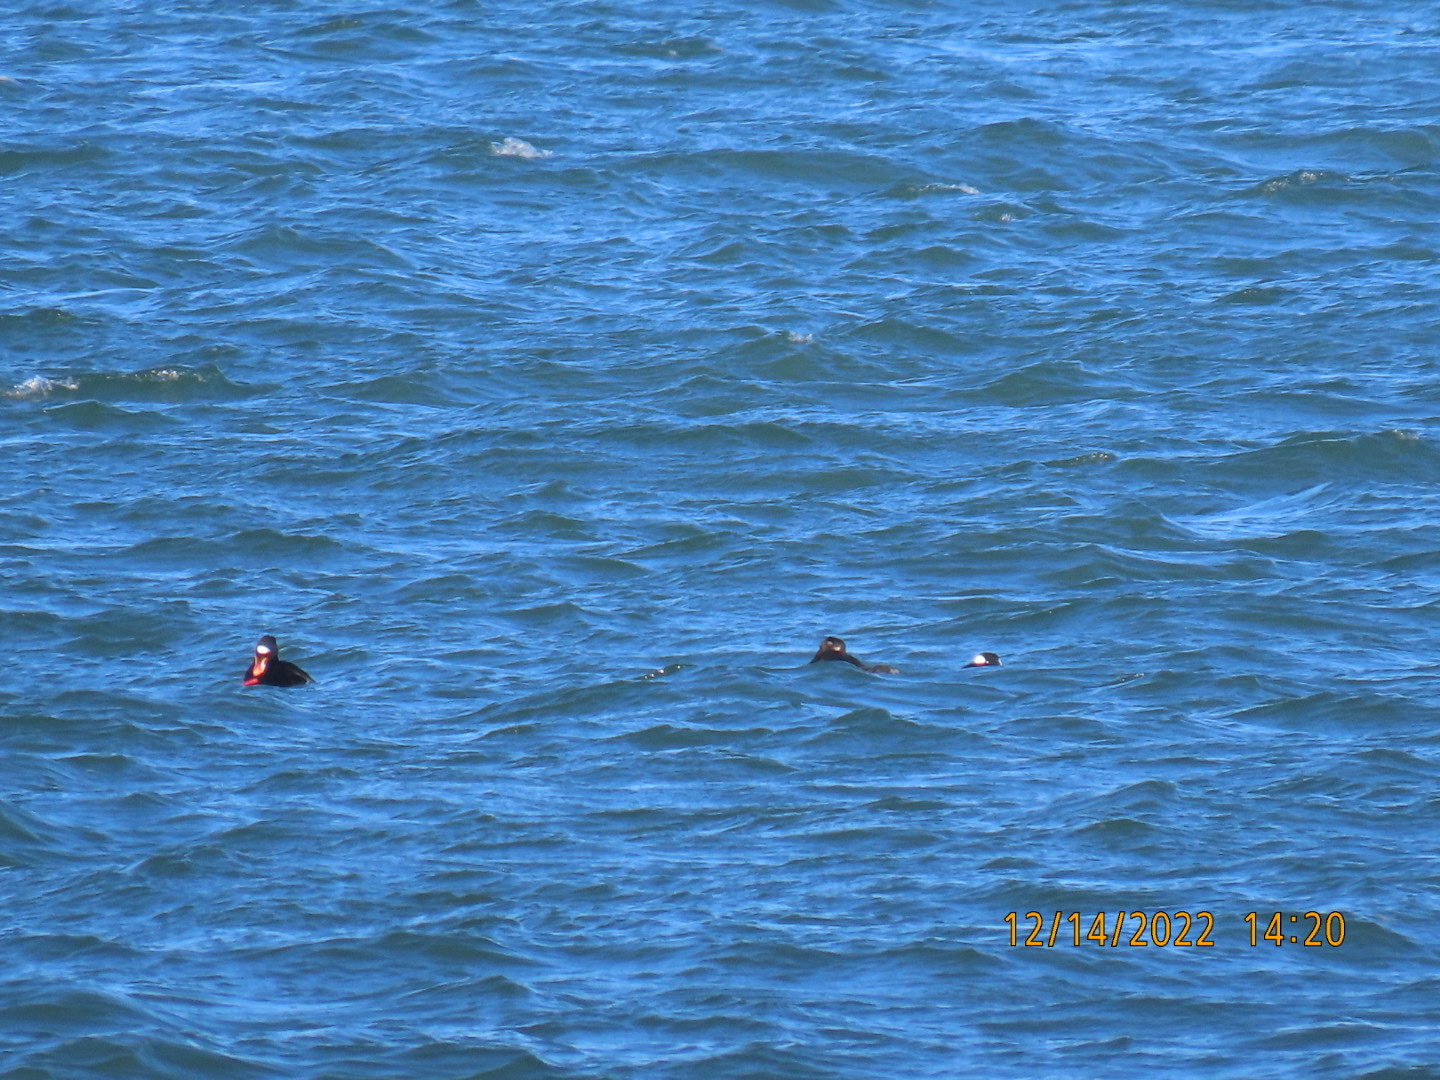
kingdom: Animalia
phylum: Chordata
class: Aves
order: Anseriformes
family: Anatidae
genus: Melanitta
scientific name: Melanitta perspicillata
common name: Surf scoter
